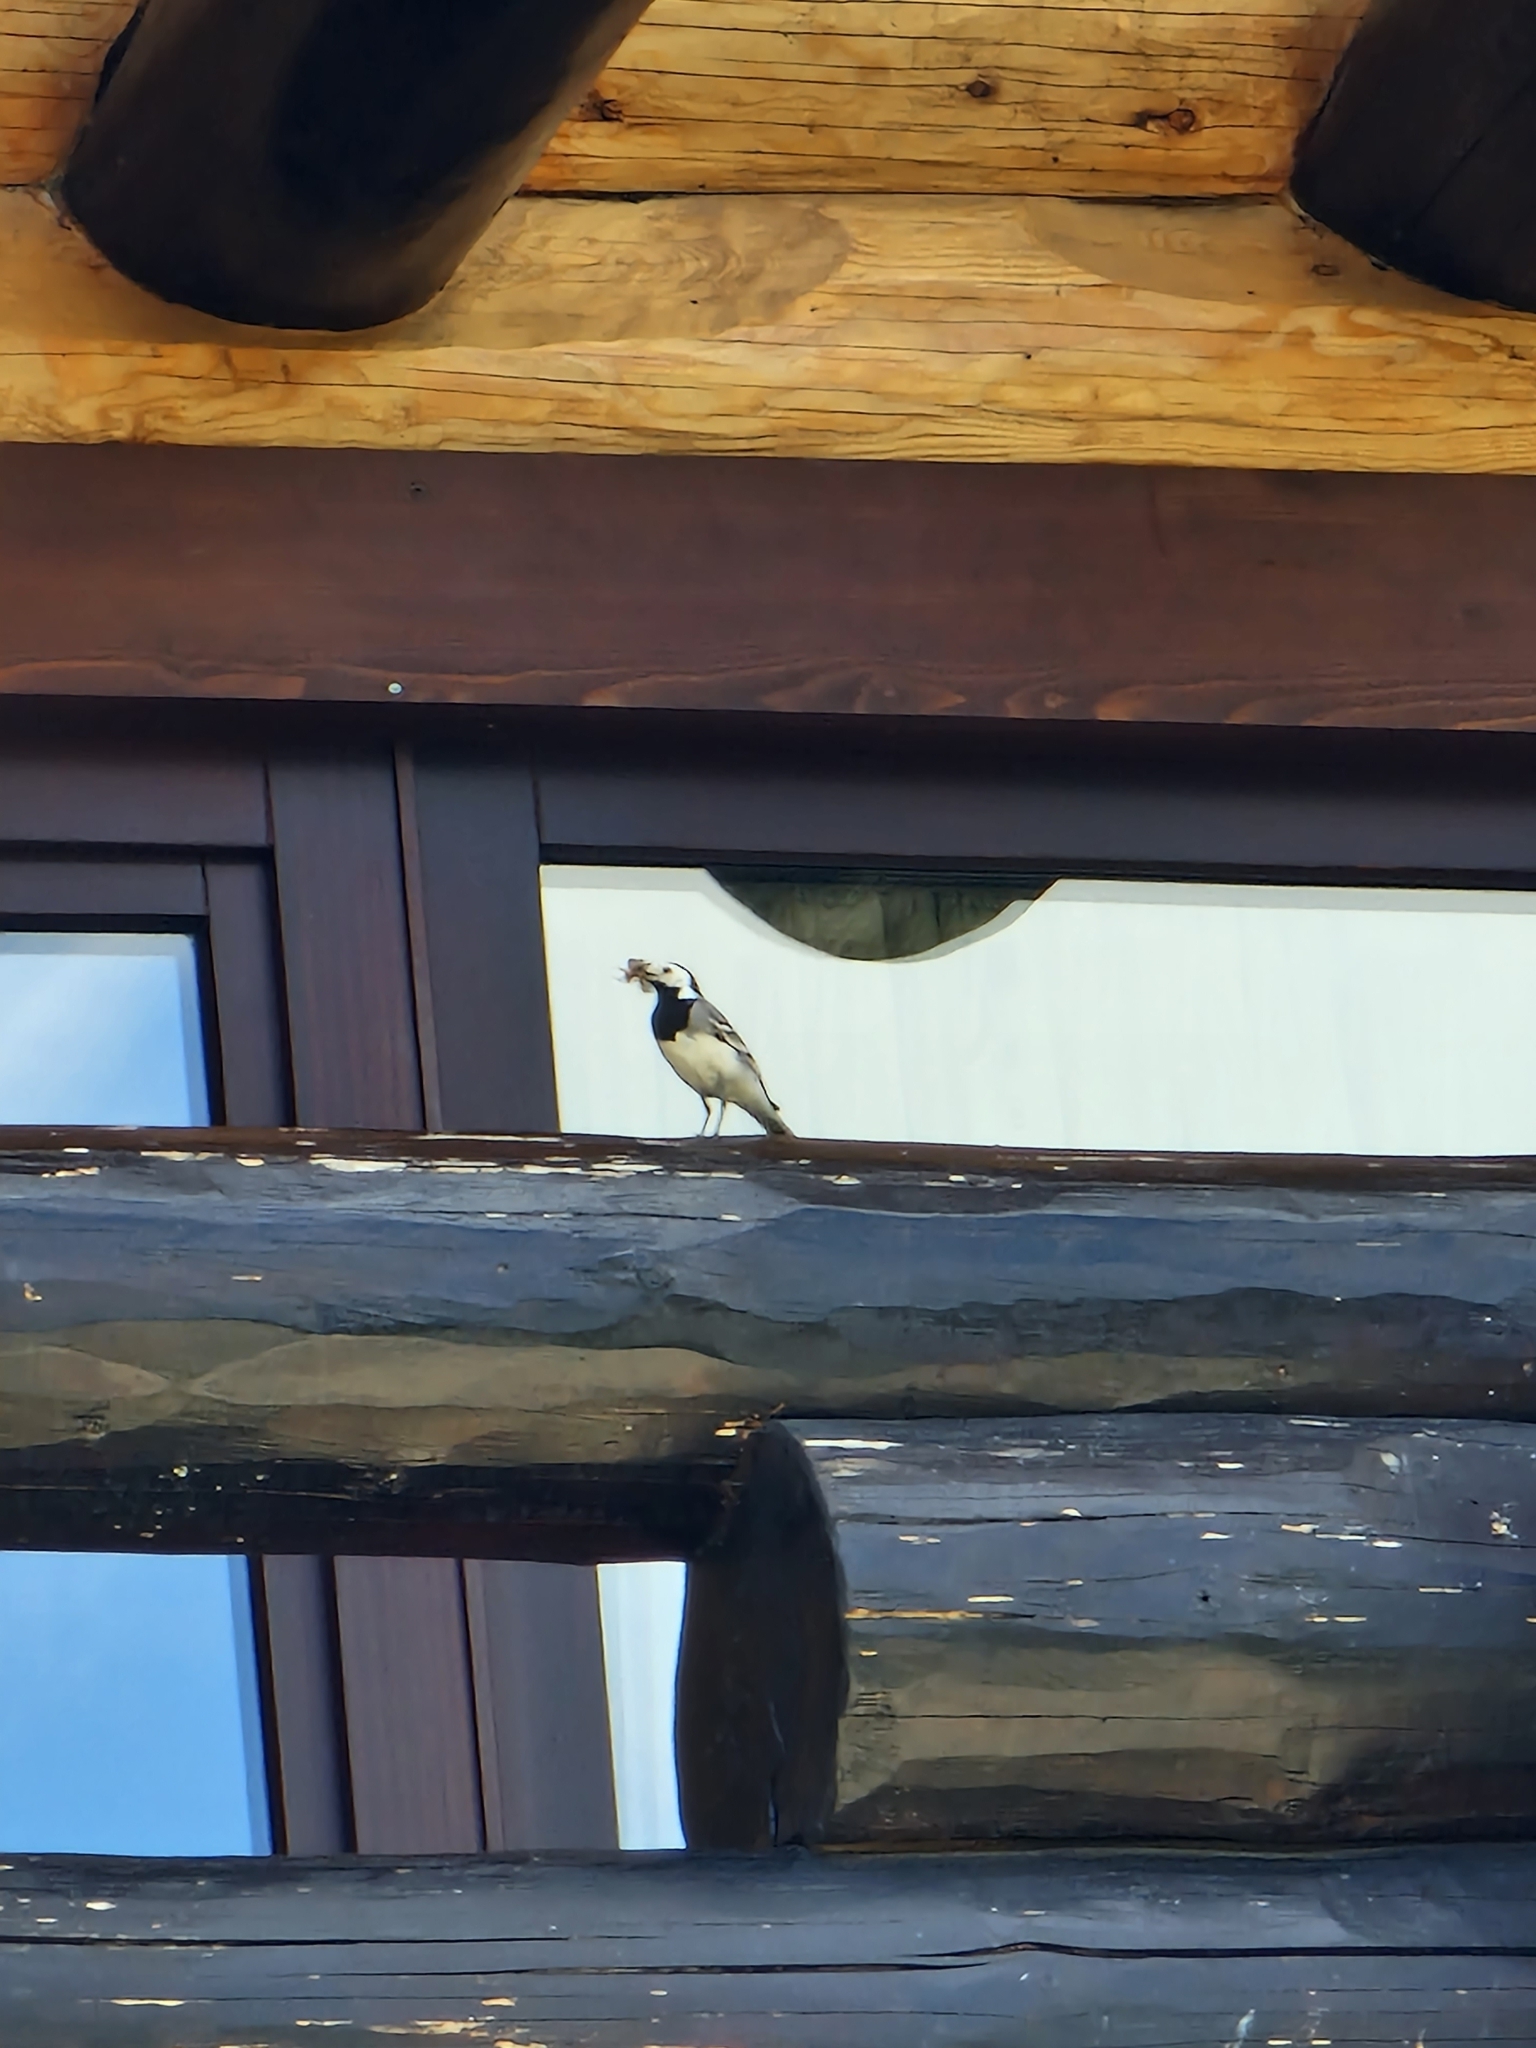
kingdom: Animalia
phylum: Chordata
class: Aves
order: Passeriformes
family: Motacillidae
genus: Motacilla
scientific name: Motacilla alba
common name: White wagtail
